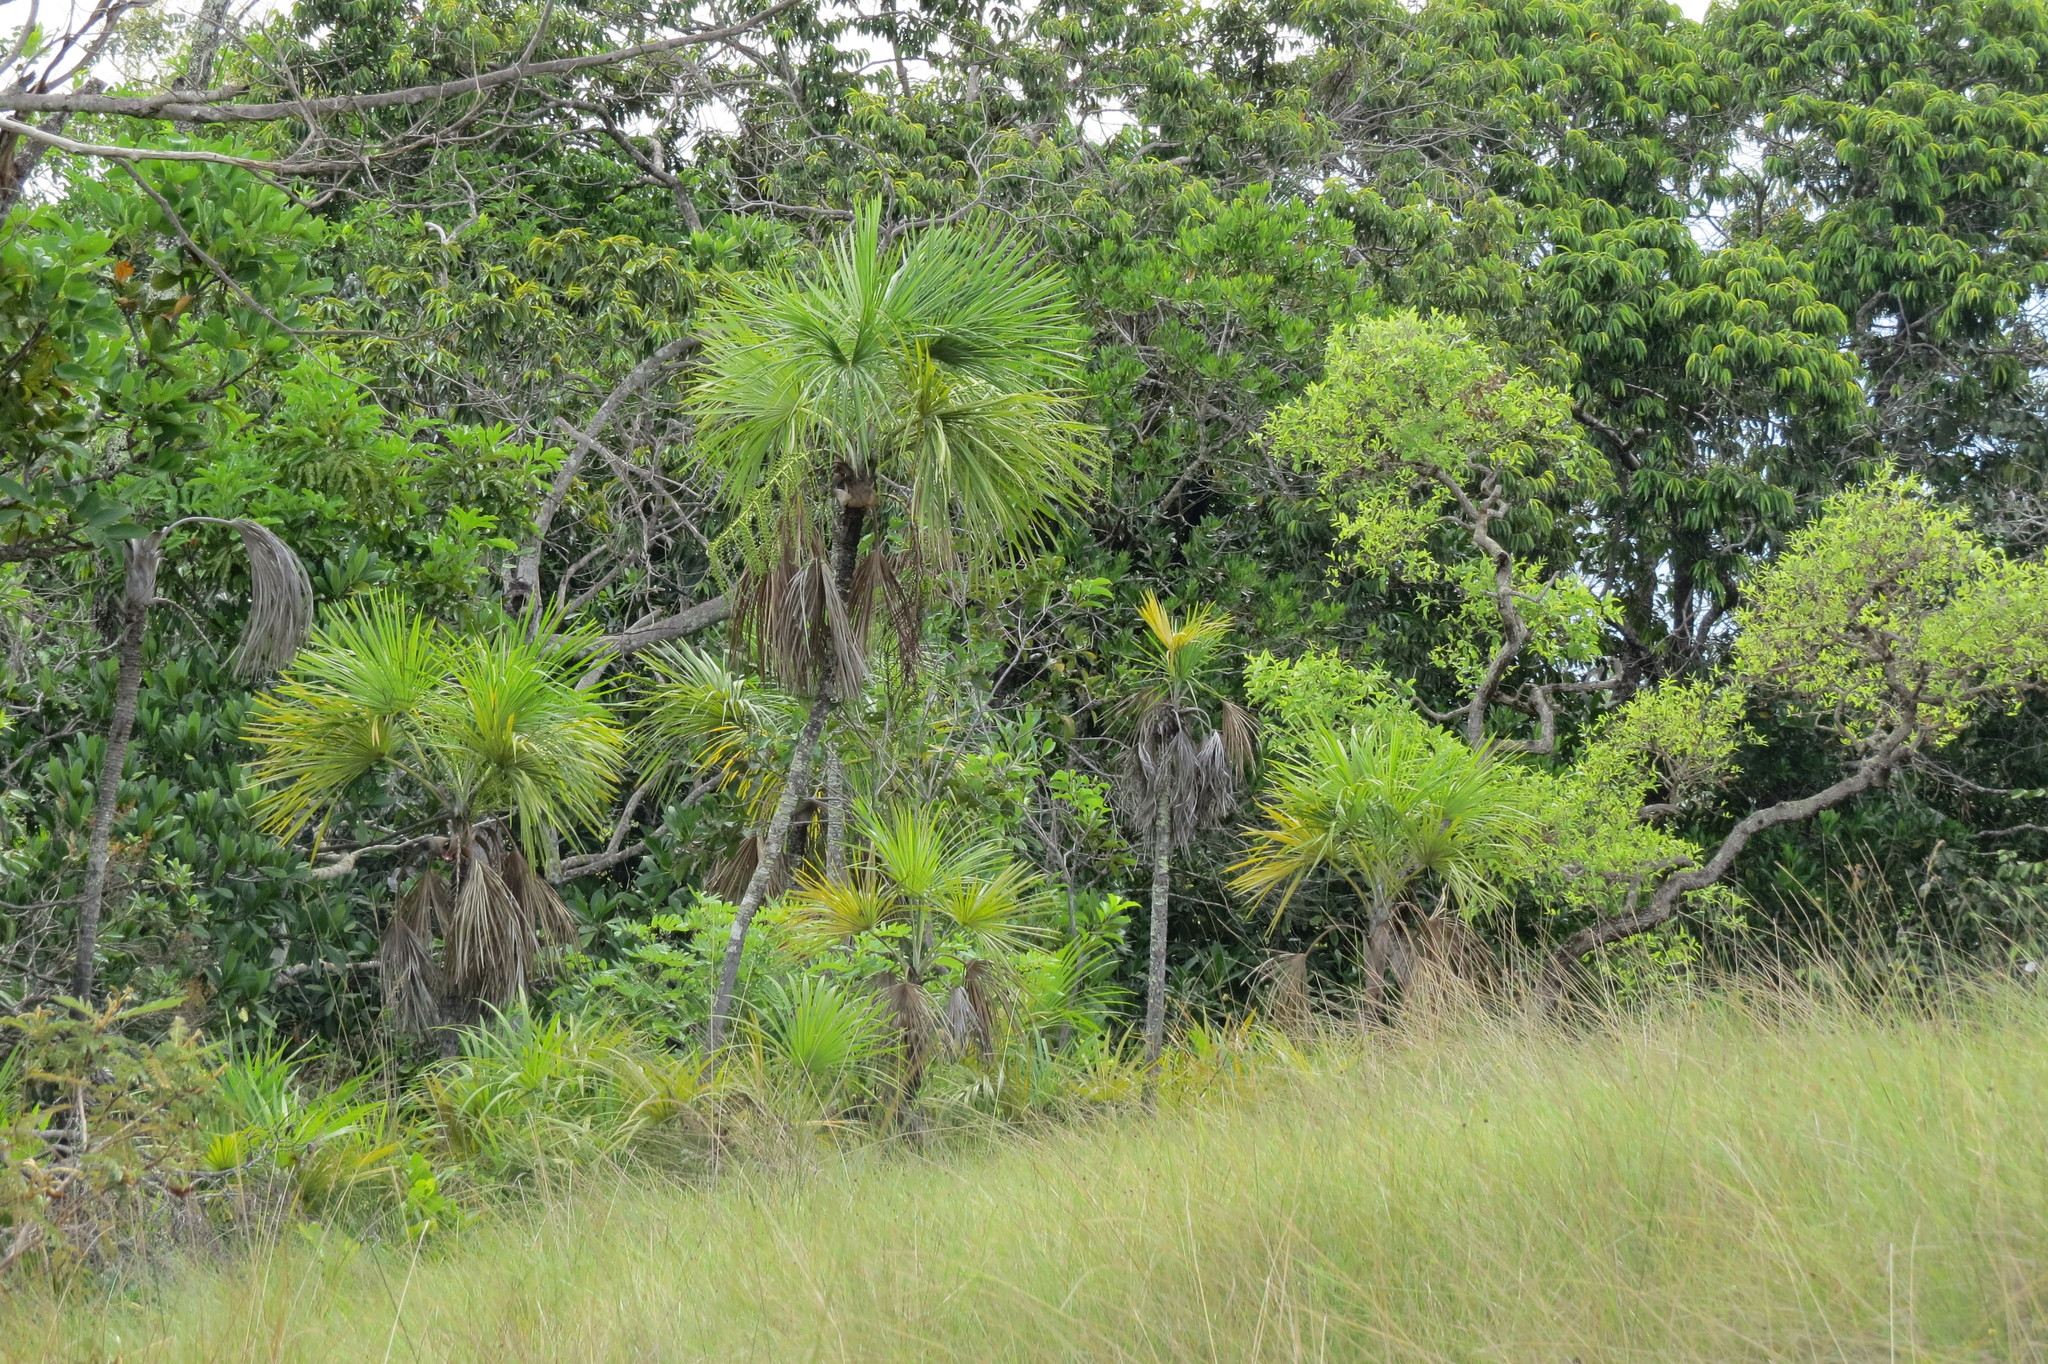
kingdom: Plantae
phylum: Tracheophyta
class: Liliopsida
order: Arecales
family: Arecaceae
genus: Mauritiella
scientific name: Mauritiella armata
